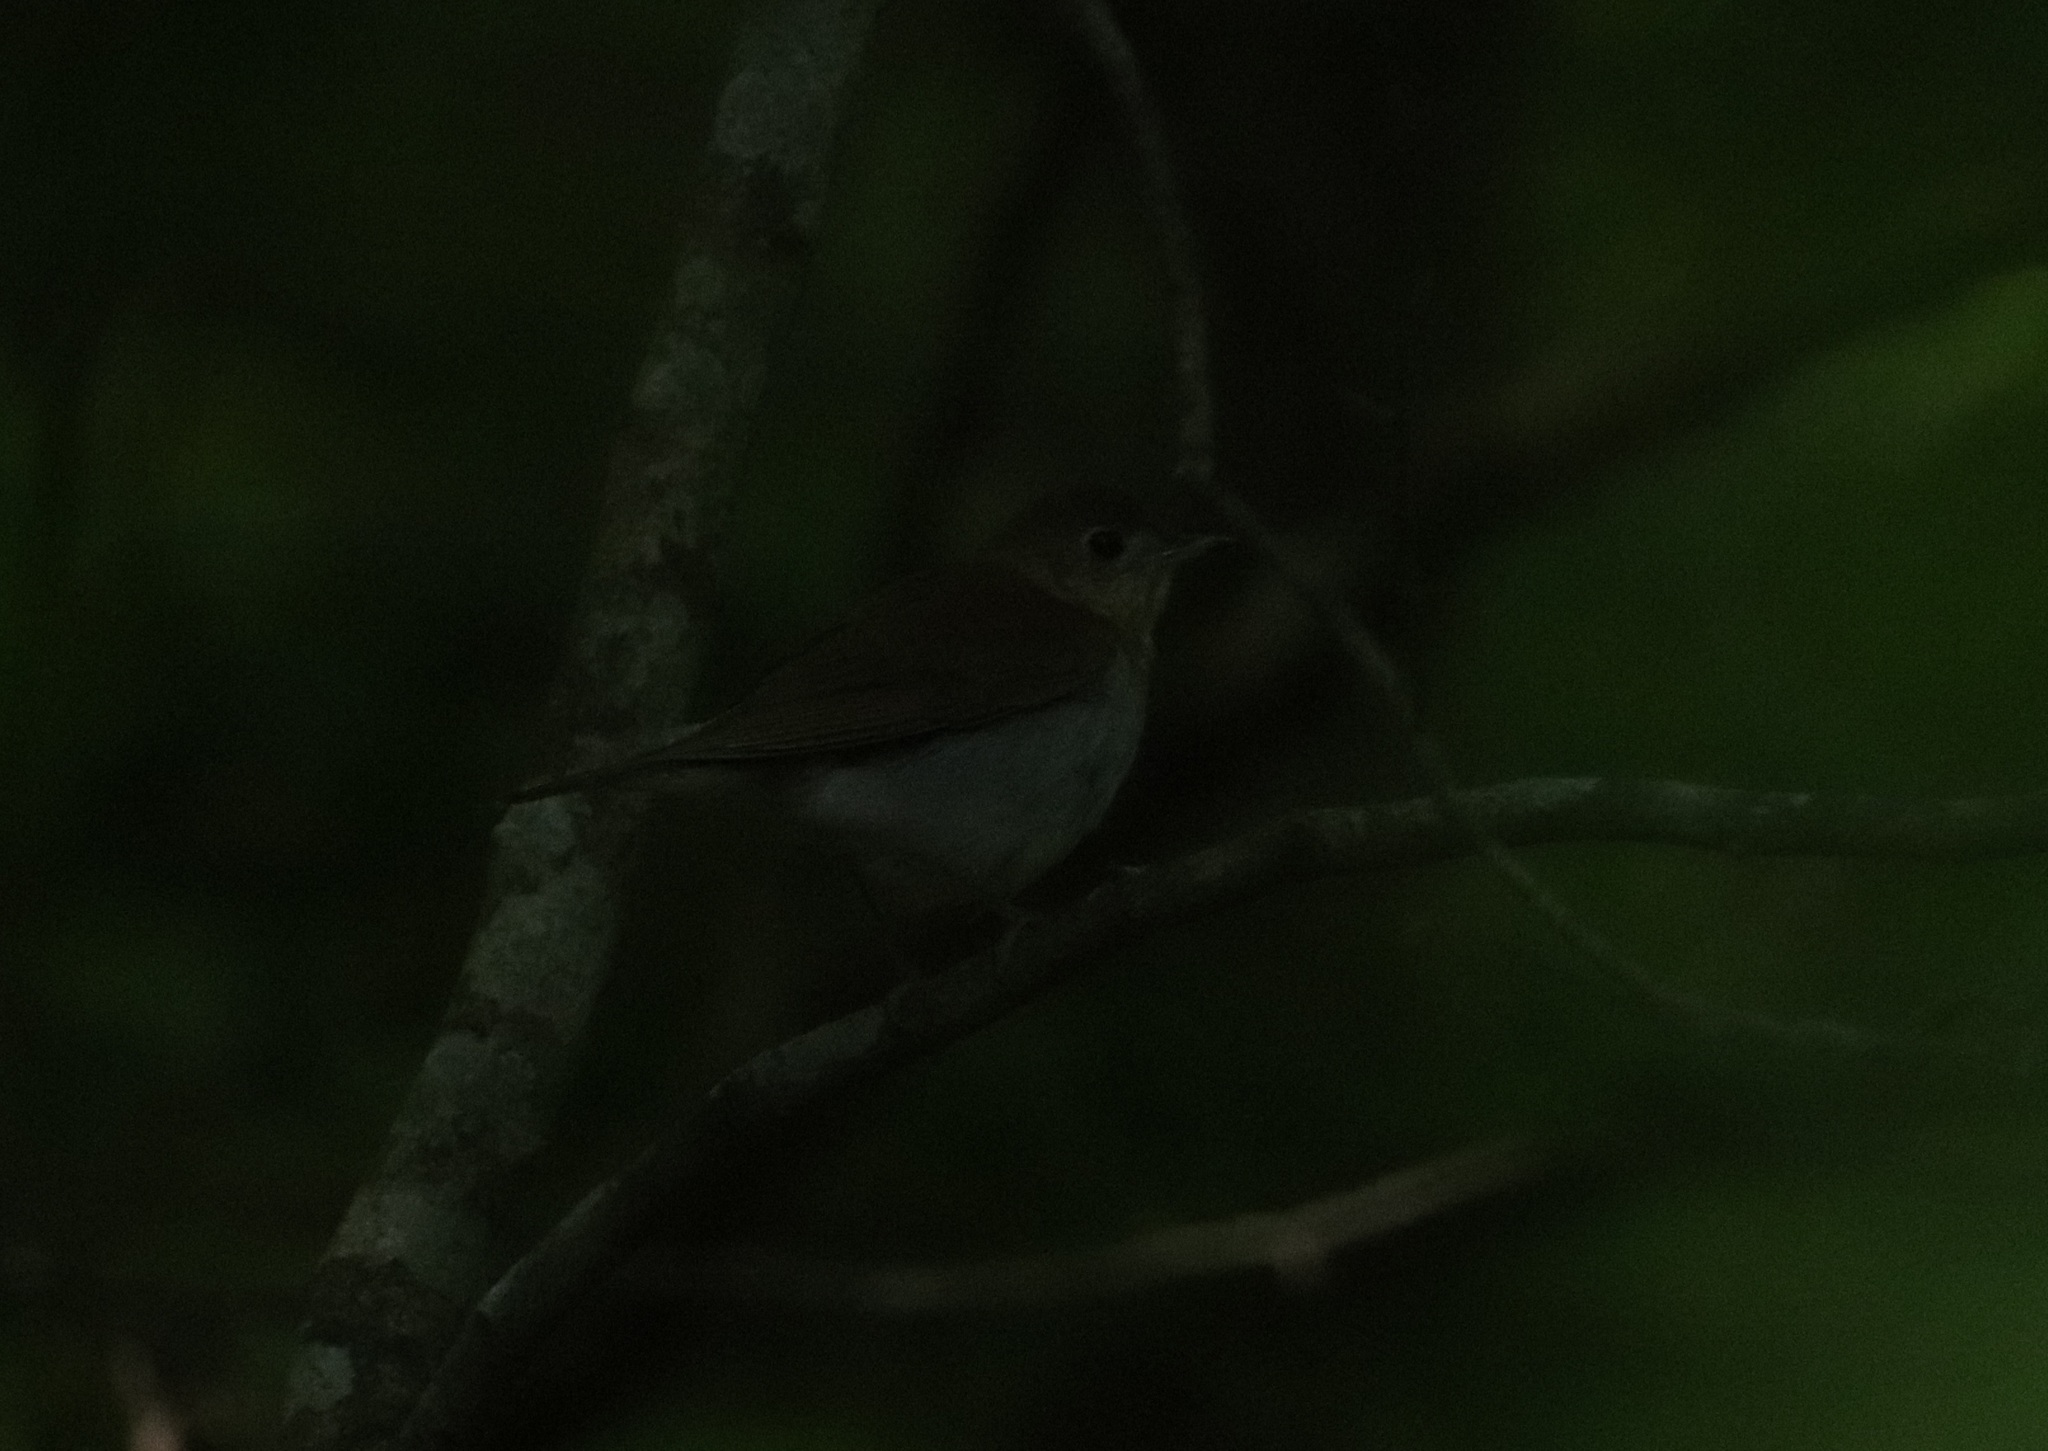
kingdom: Animalia
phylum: Chordata
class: Aves
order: Passeriformes
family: Turdidae
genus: Catharus
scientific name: Catharus fuscescens
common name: Veery
